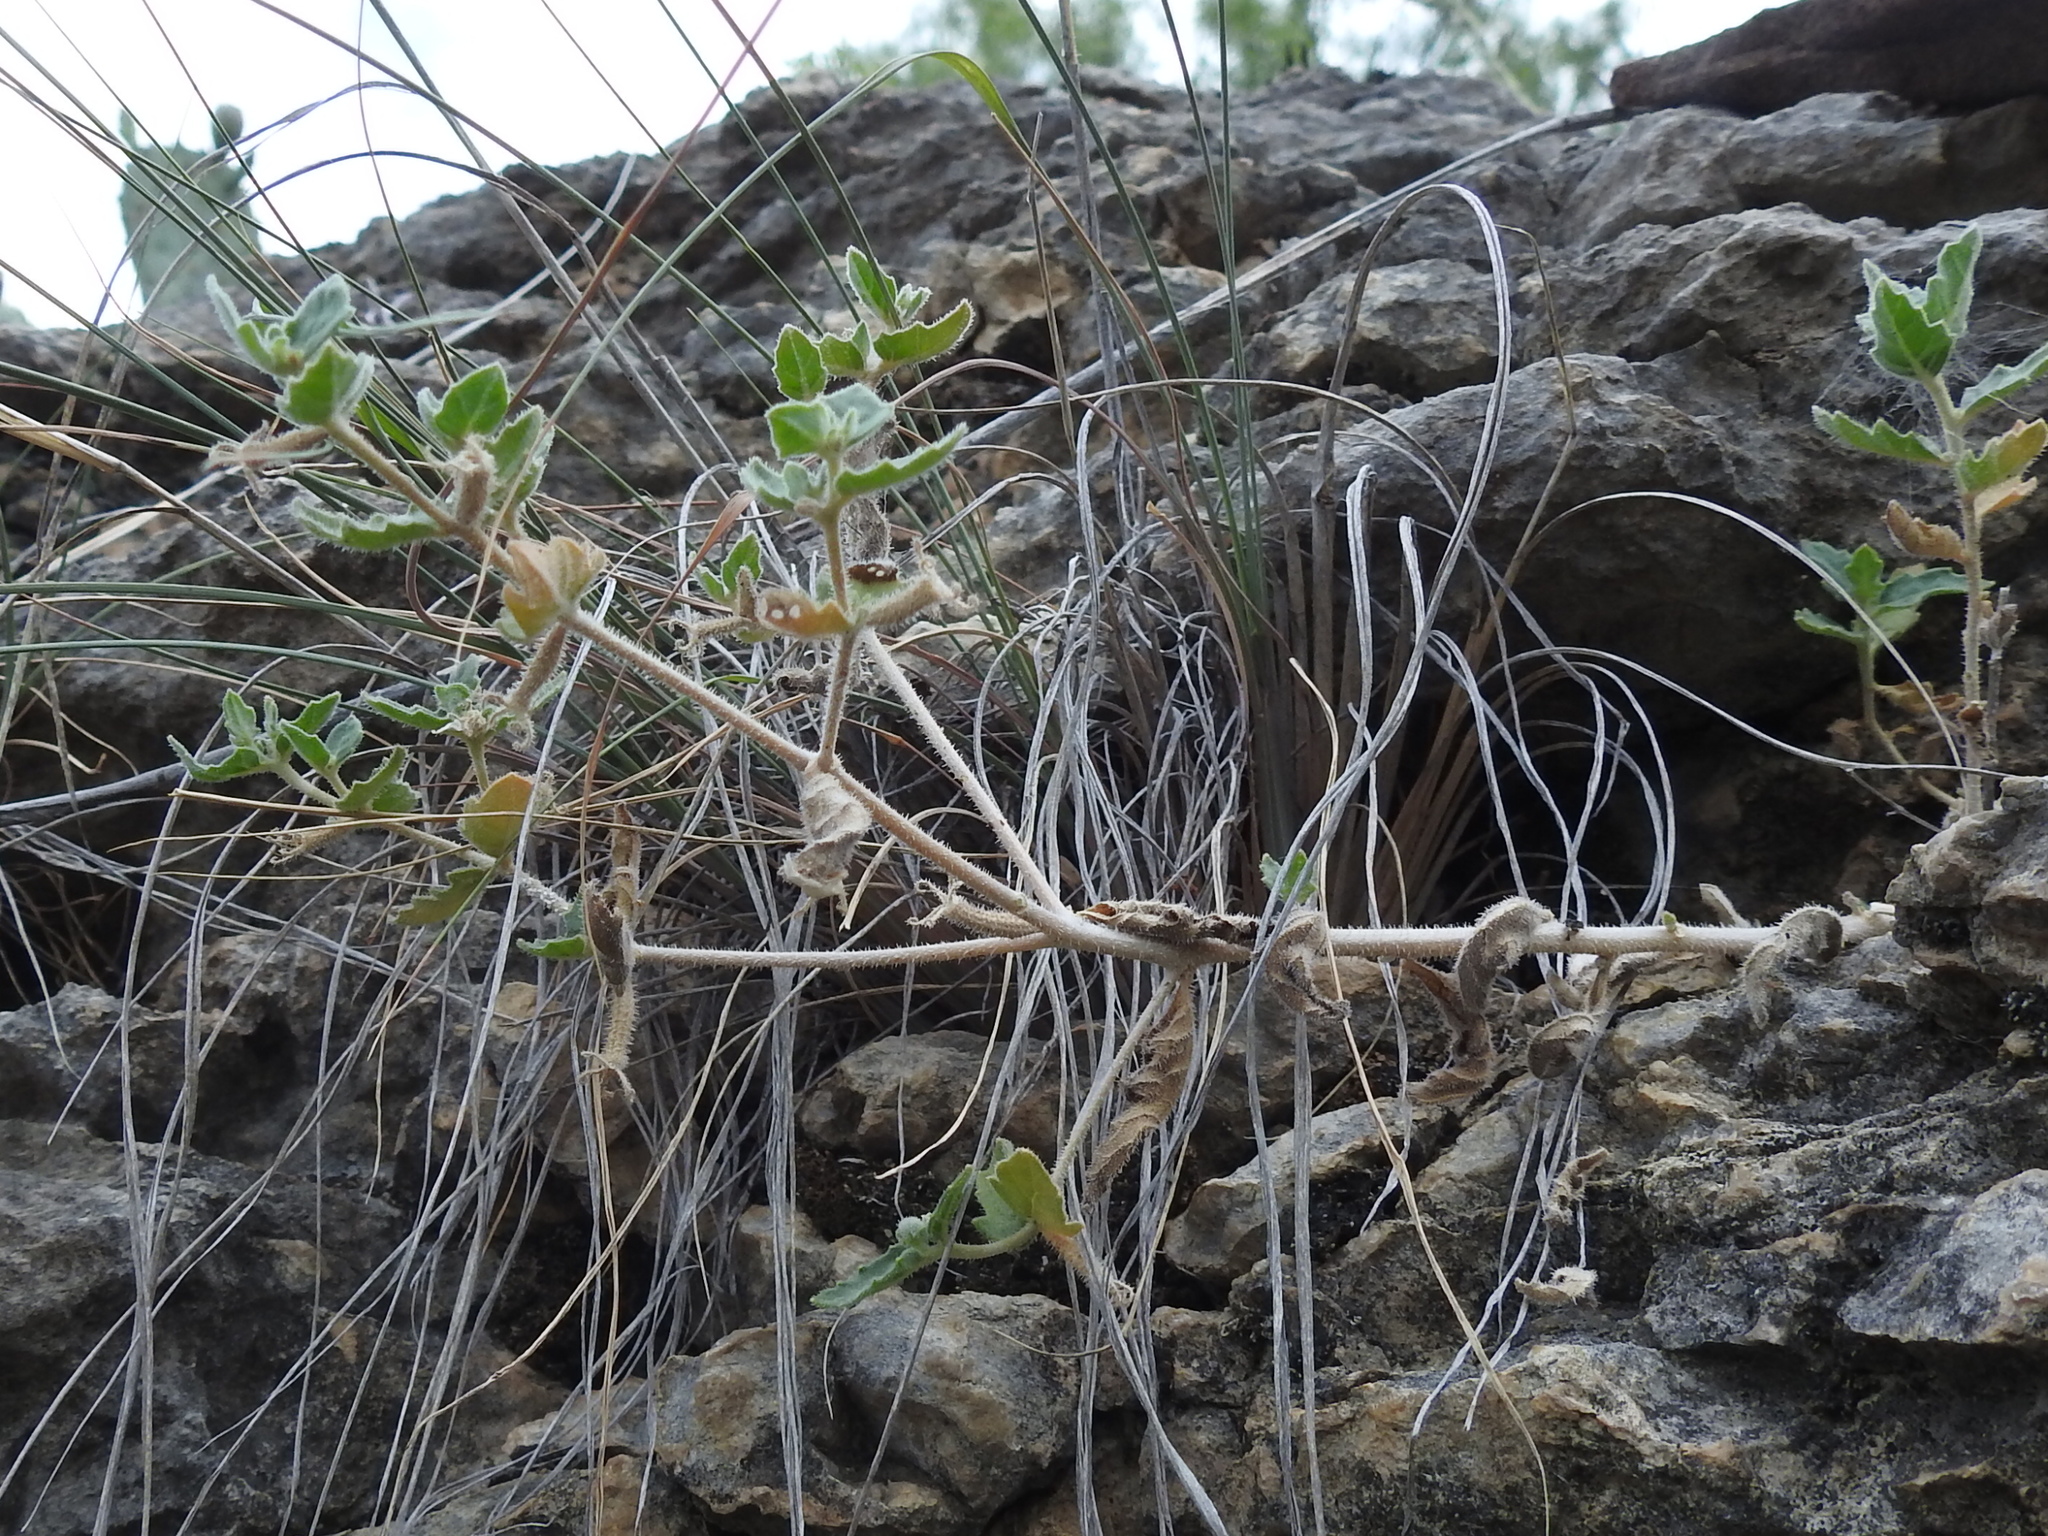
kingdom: Plantae
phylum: Tracheophyta
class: Magnoliopsida
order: Cornales
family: Loasaceae
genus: Mentzelia
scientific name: Mentzelia oligosperma
